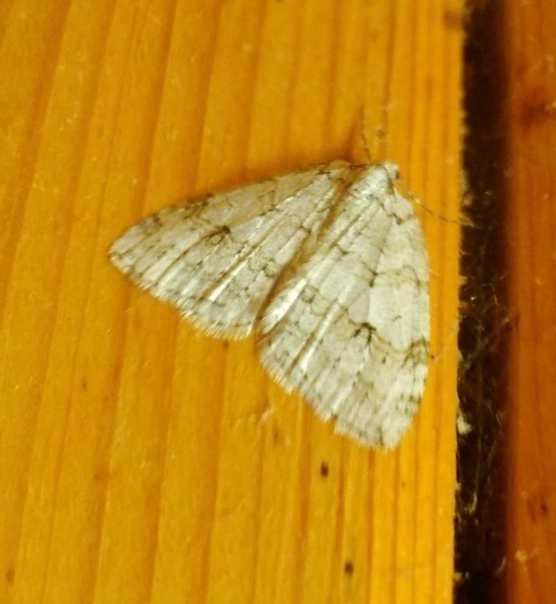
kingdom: Animalia
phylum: Arthropoda
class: Insecta
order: Lepidoptera
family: Geometridae
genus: Epirrita
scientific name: Epirrita autumnata
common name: Autumnal moth
